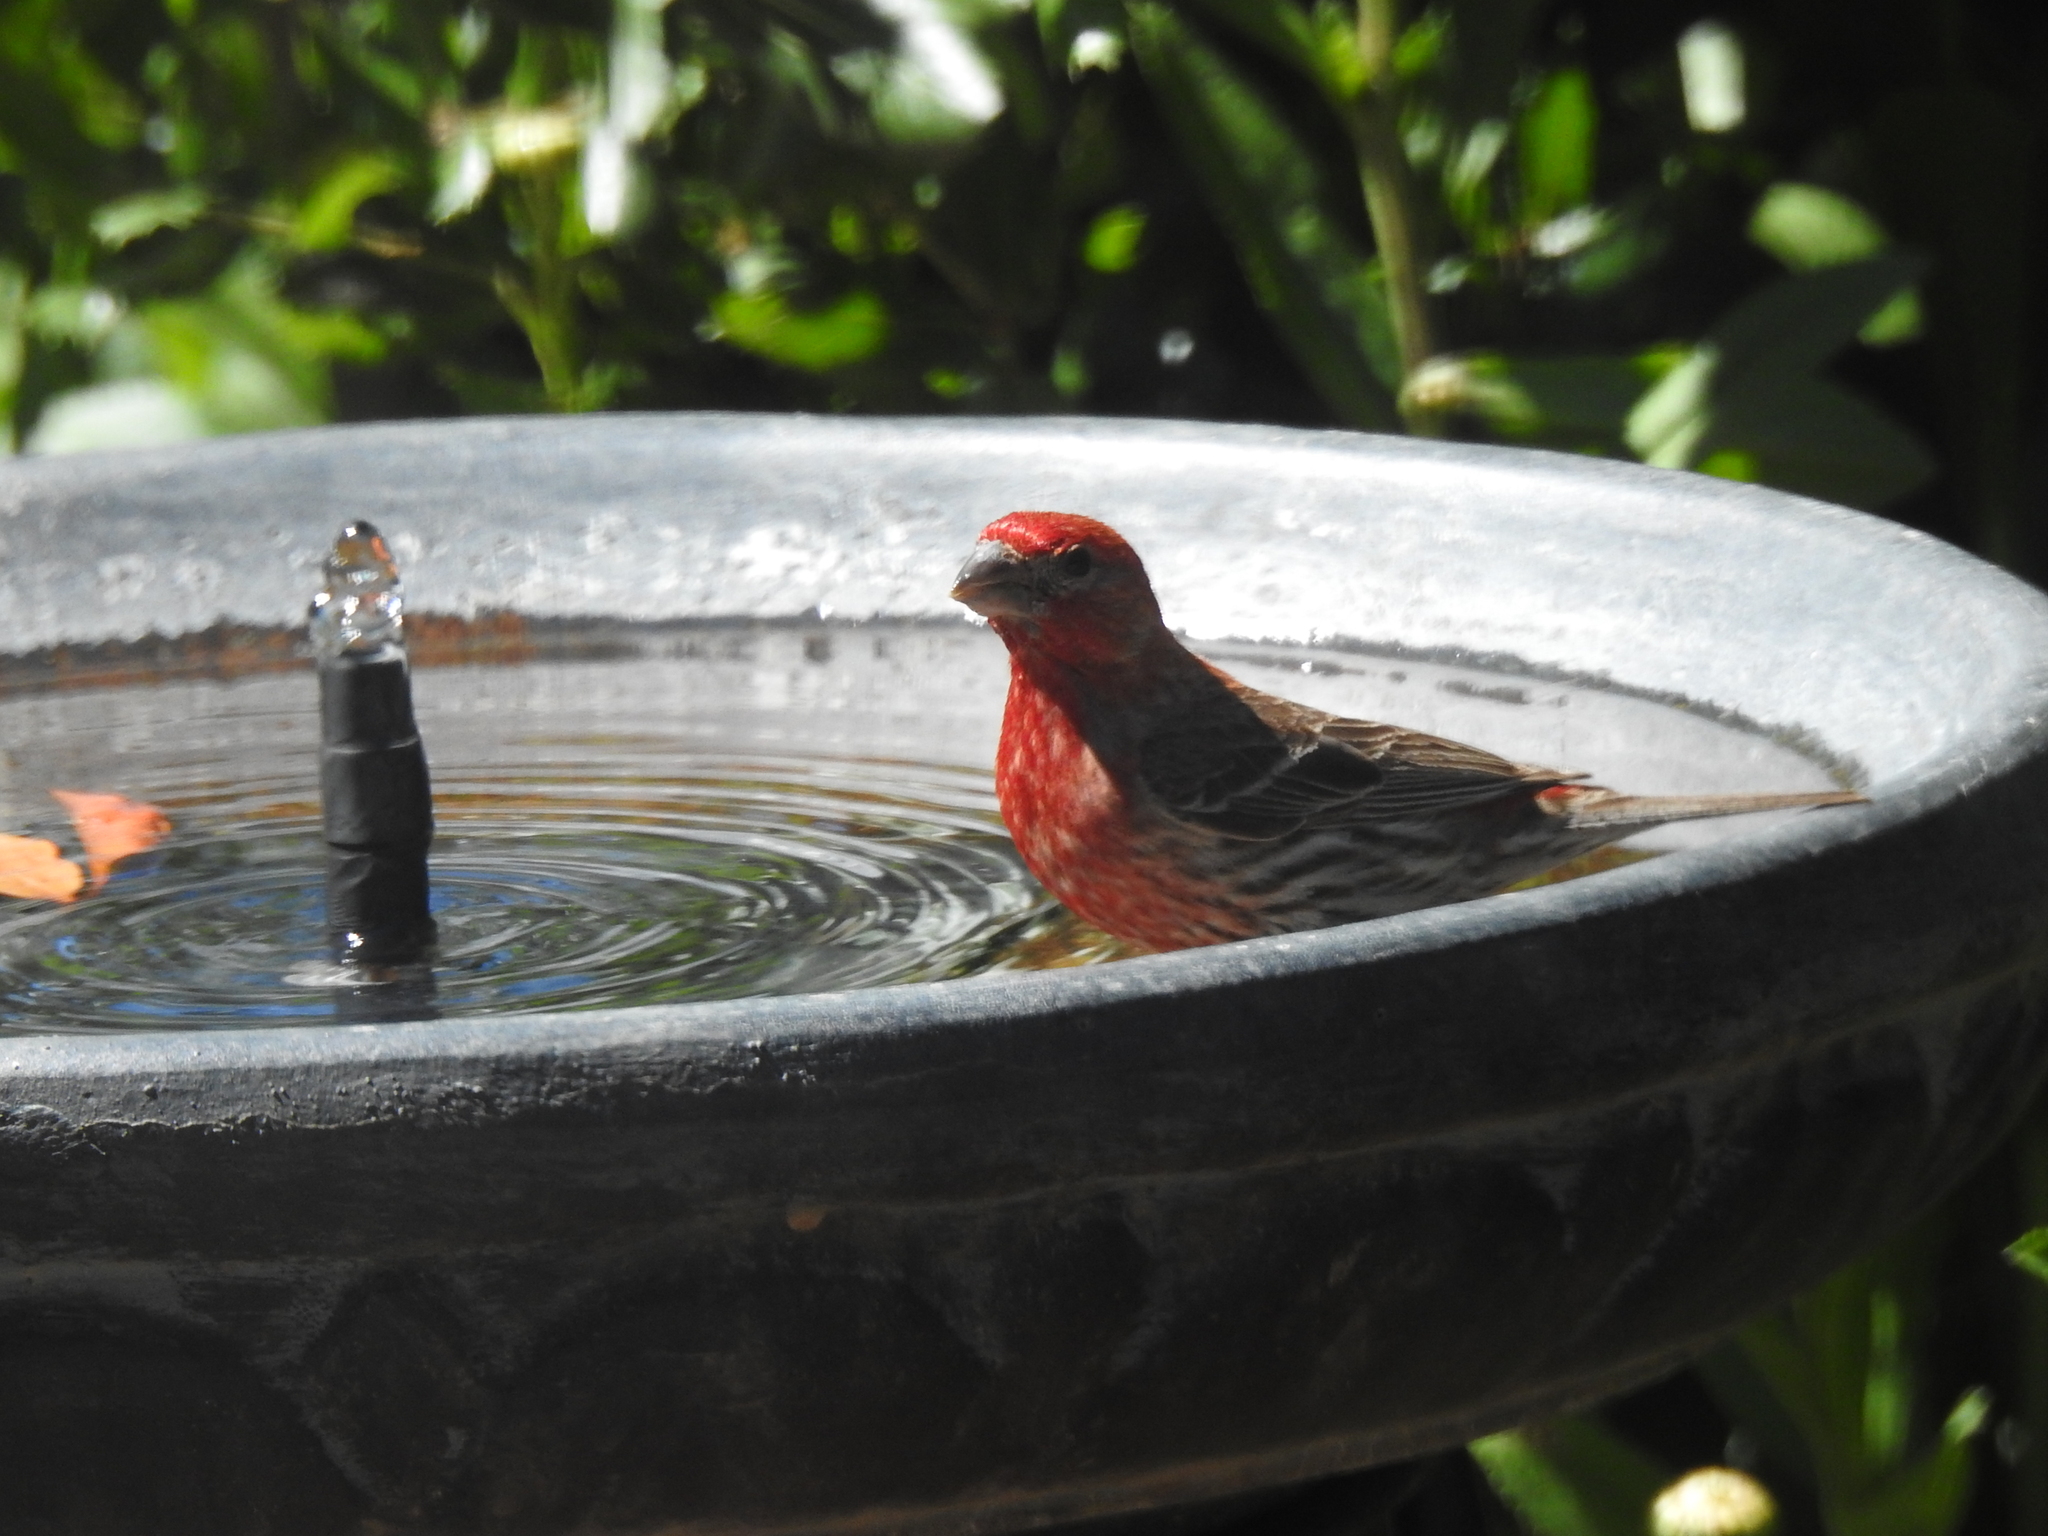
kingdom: Animalia
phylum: Chordata
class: Aves
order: Passeriformes
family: Fringillidae
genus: Haemorhous
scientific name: Haemorhous mexicanus
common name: House finch
